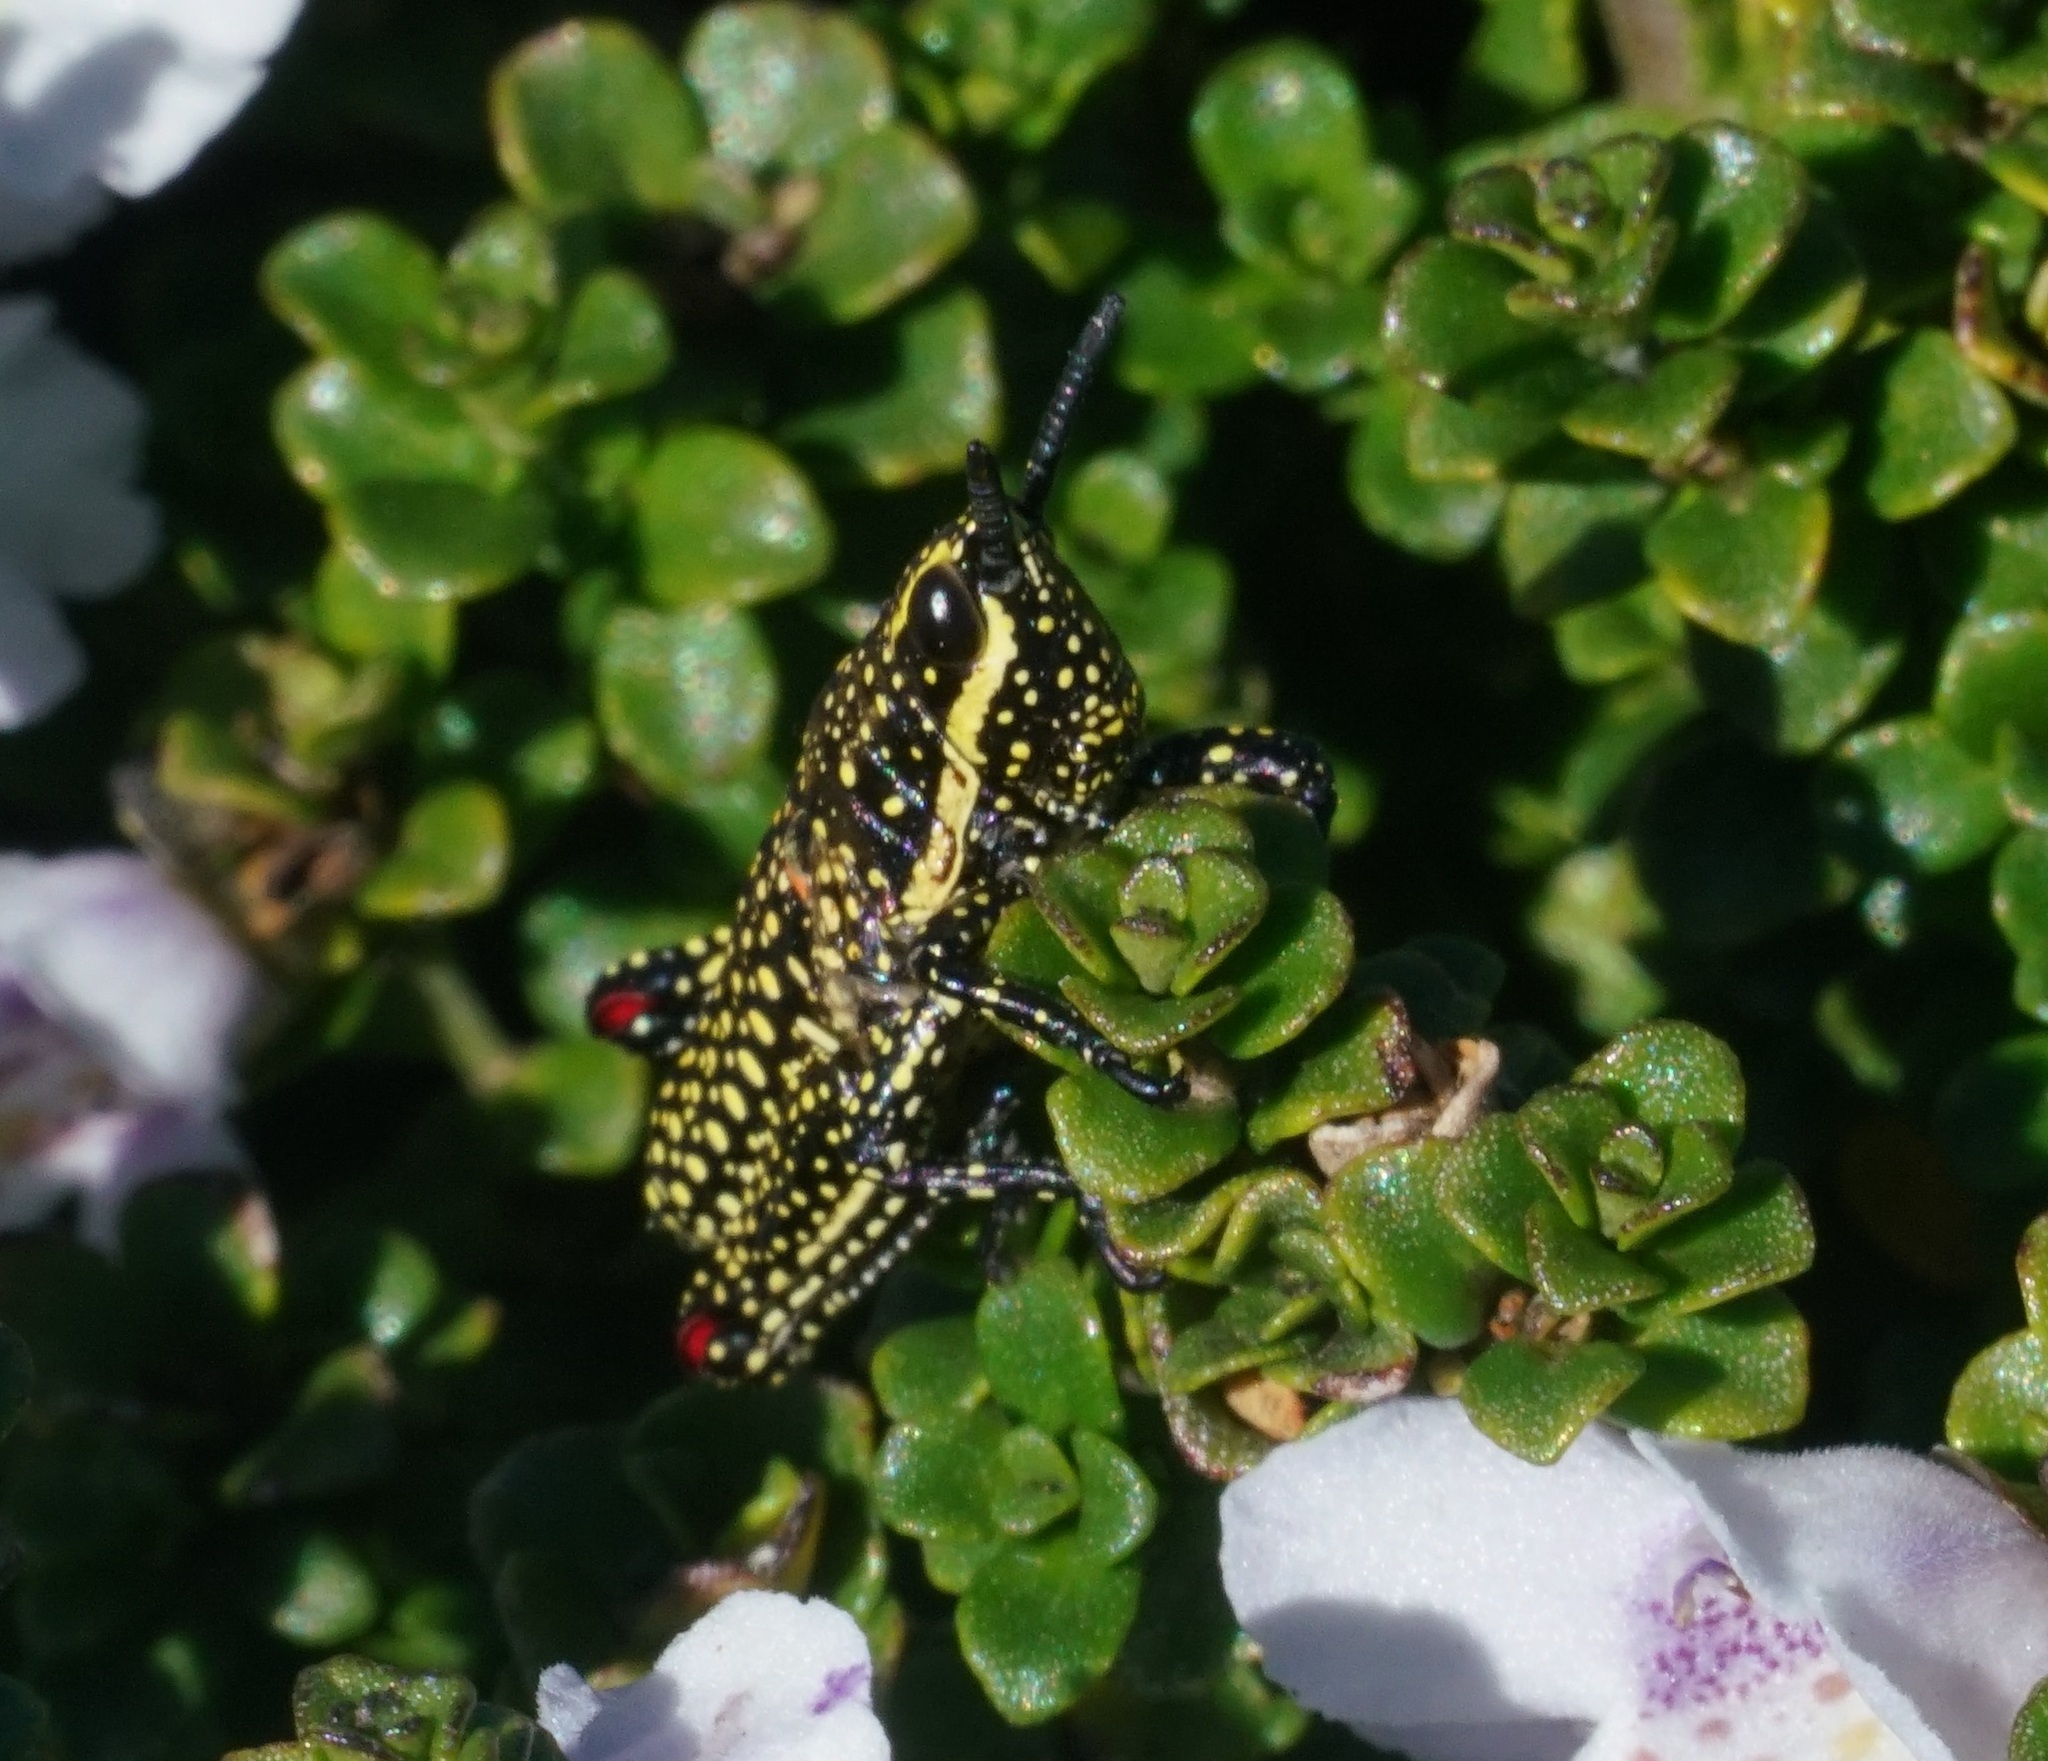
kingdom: Animalia
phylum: Arthropoda
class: Insecta
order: Orthoptera
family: Pyrgomorphidae
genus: Monistria
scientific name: Monistria concinna
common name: Southern pyrgomorph
